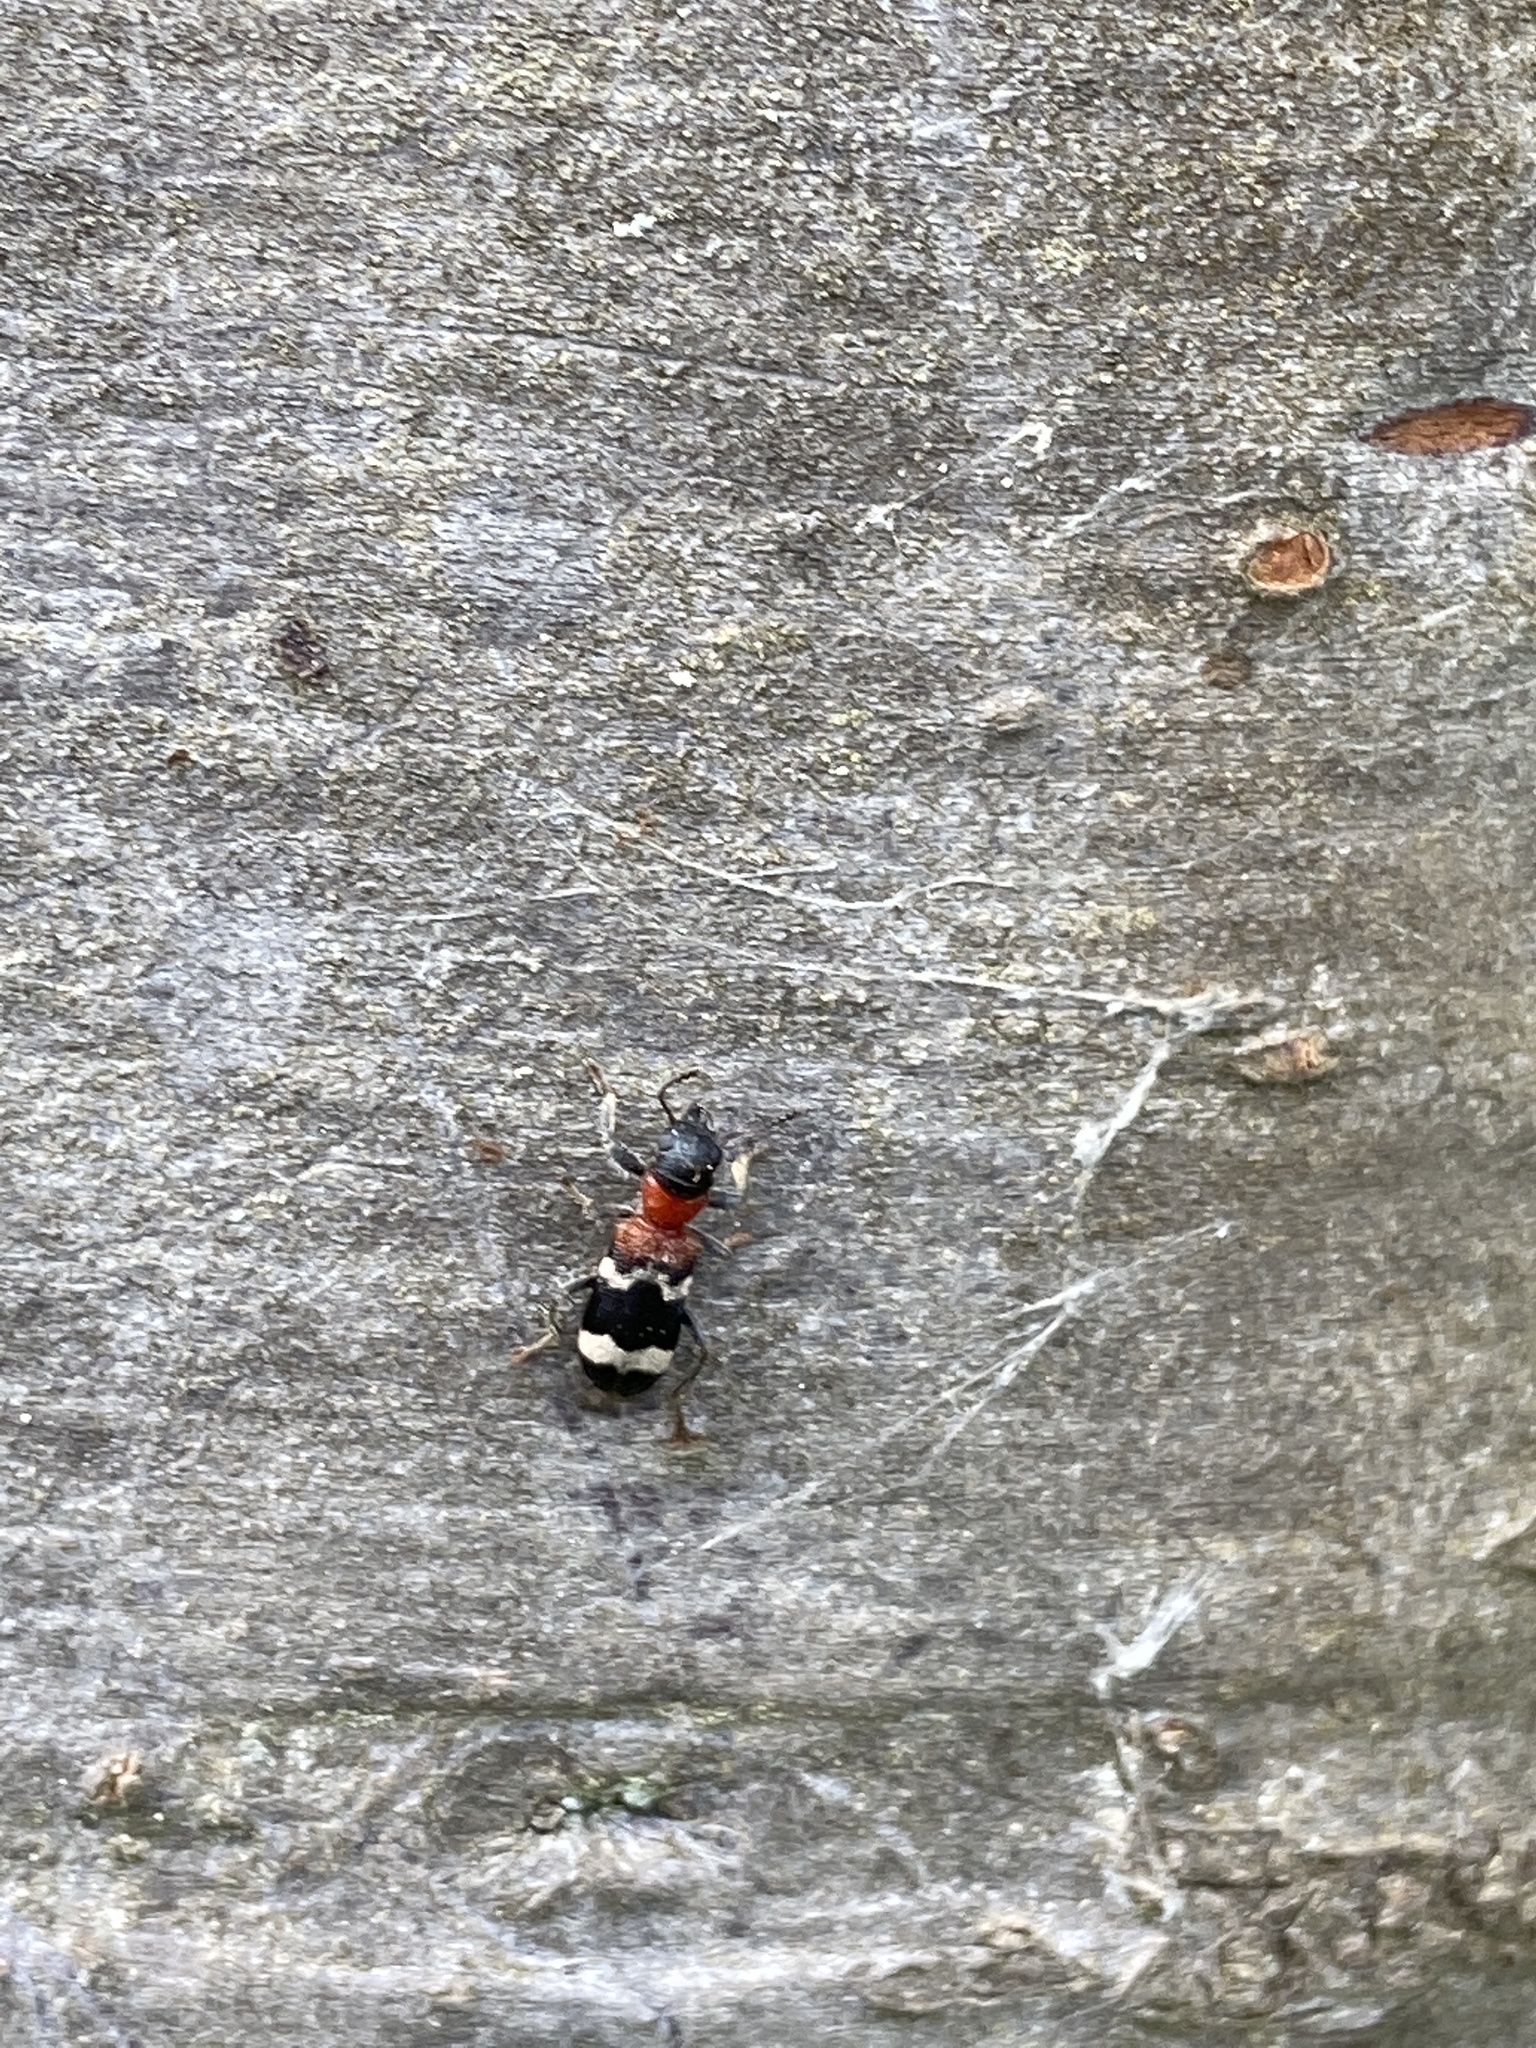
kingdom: Animalia
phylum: Arthropoda
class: Insecta
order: Coleoptera
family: Cleridae
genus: Thanasimus
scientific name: Thanasimus formicarius
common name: Ant beetle
